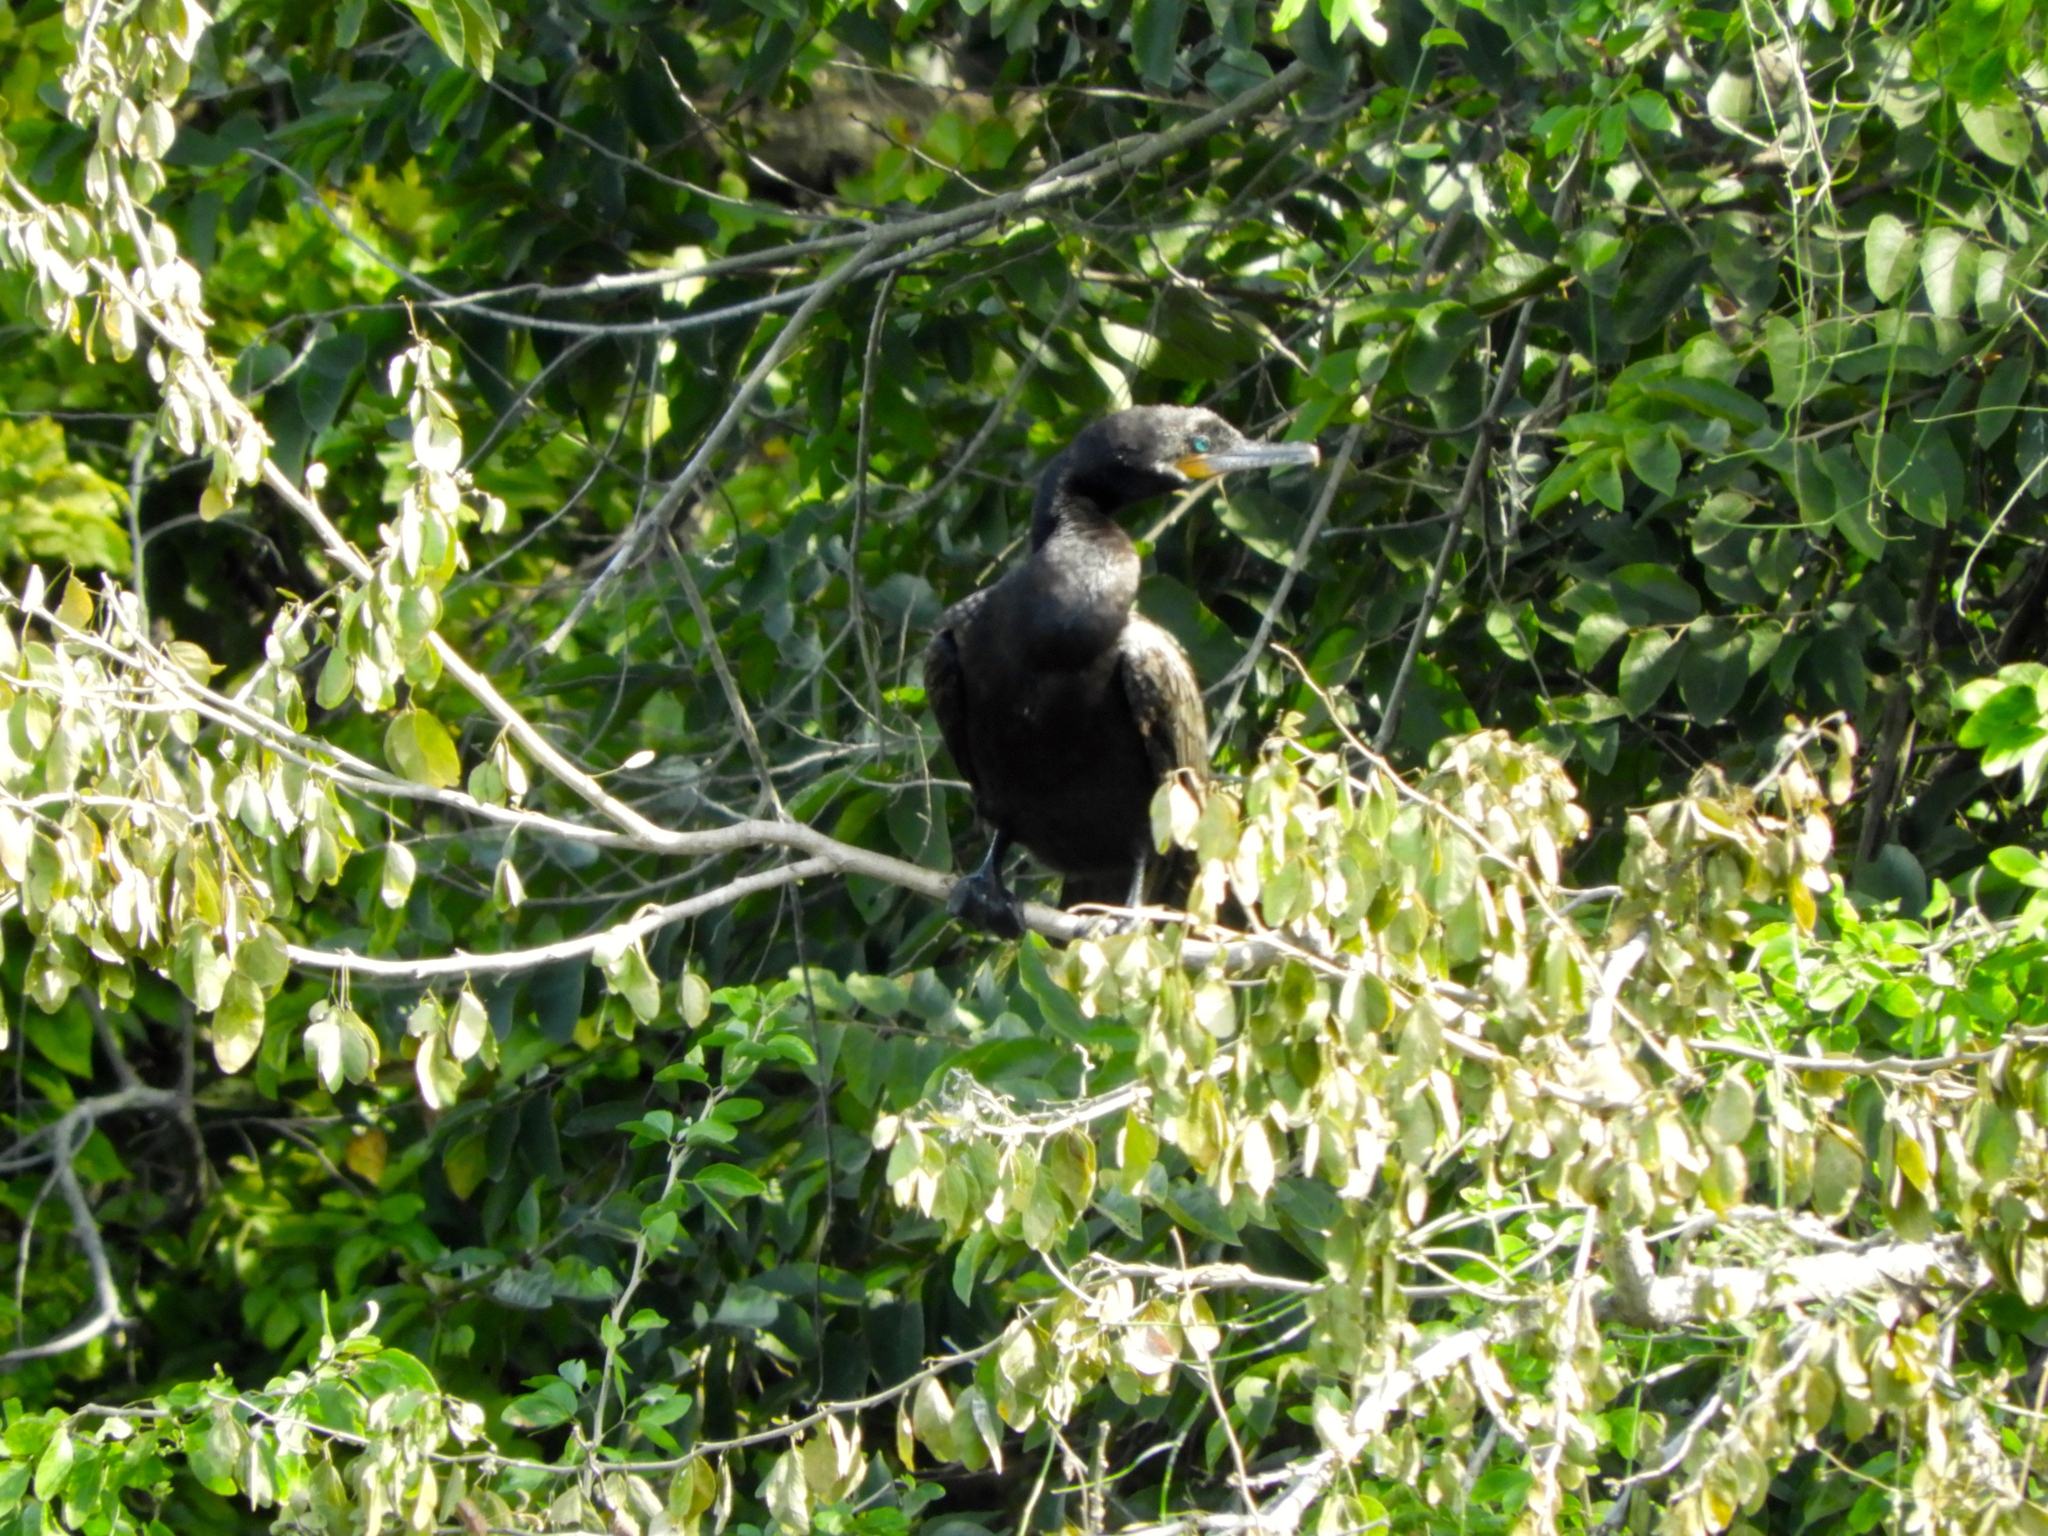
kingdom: Animalia
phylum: Chordata
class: Aves
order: Suliformes
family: Phalacrocoracidae
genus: Phalacrocorax
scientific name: Phalacrocorax brasilianus
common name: Neotropic cormorant
